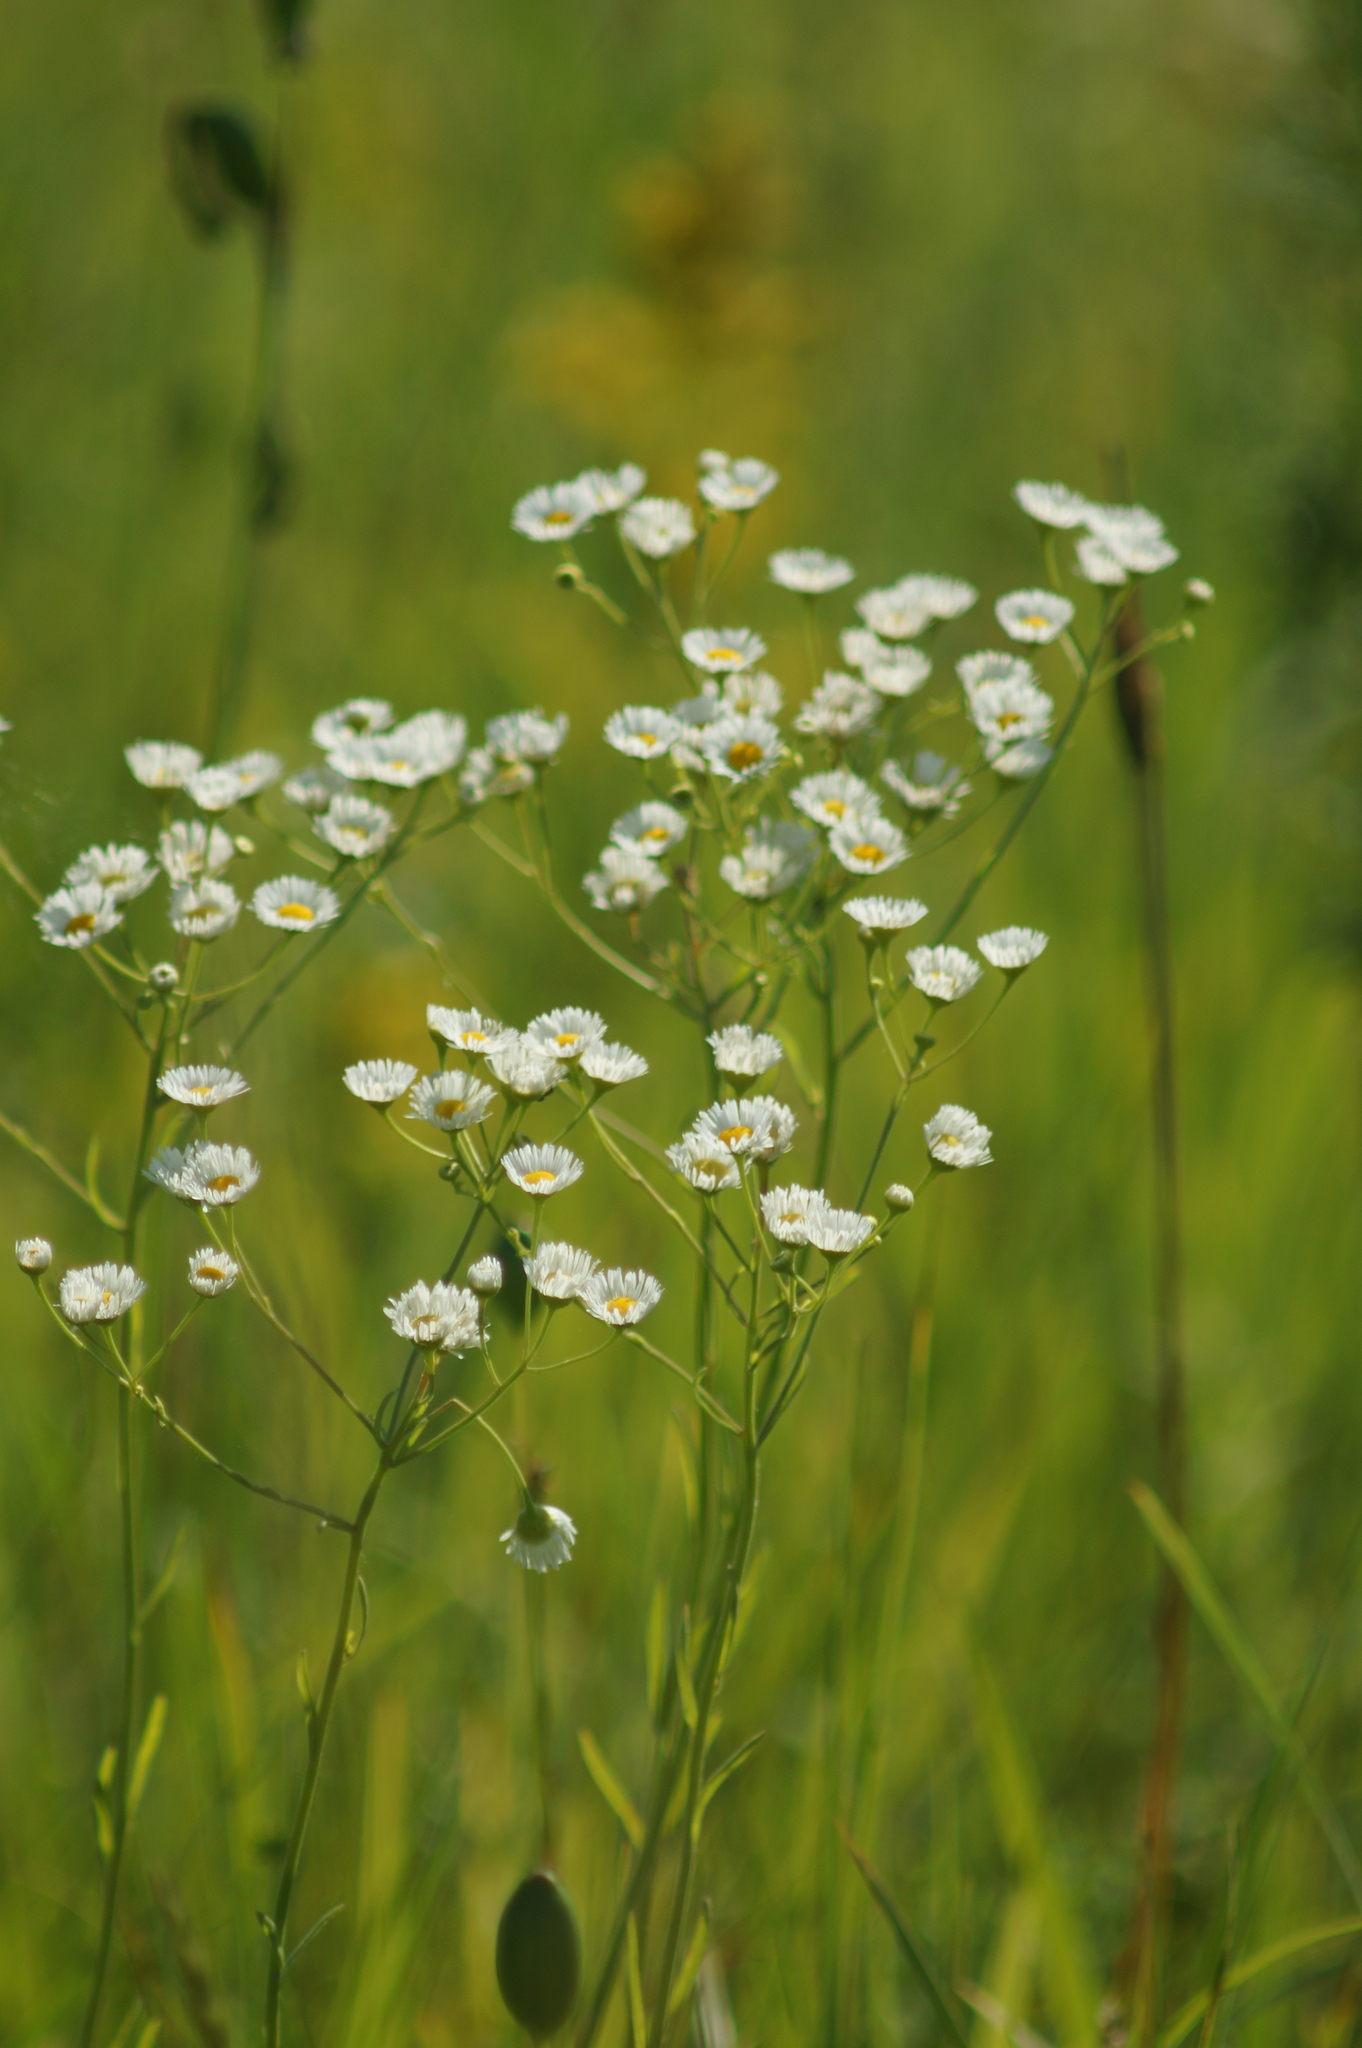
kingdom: Plantae
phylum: Tracheophyta
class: Magnoliopsida
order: Asterales
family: Asteraceae
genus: Erigeron
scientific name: Erigeron strigosus
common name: Common eastern fleabane
